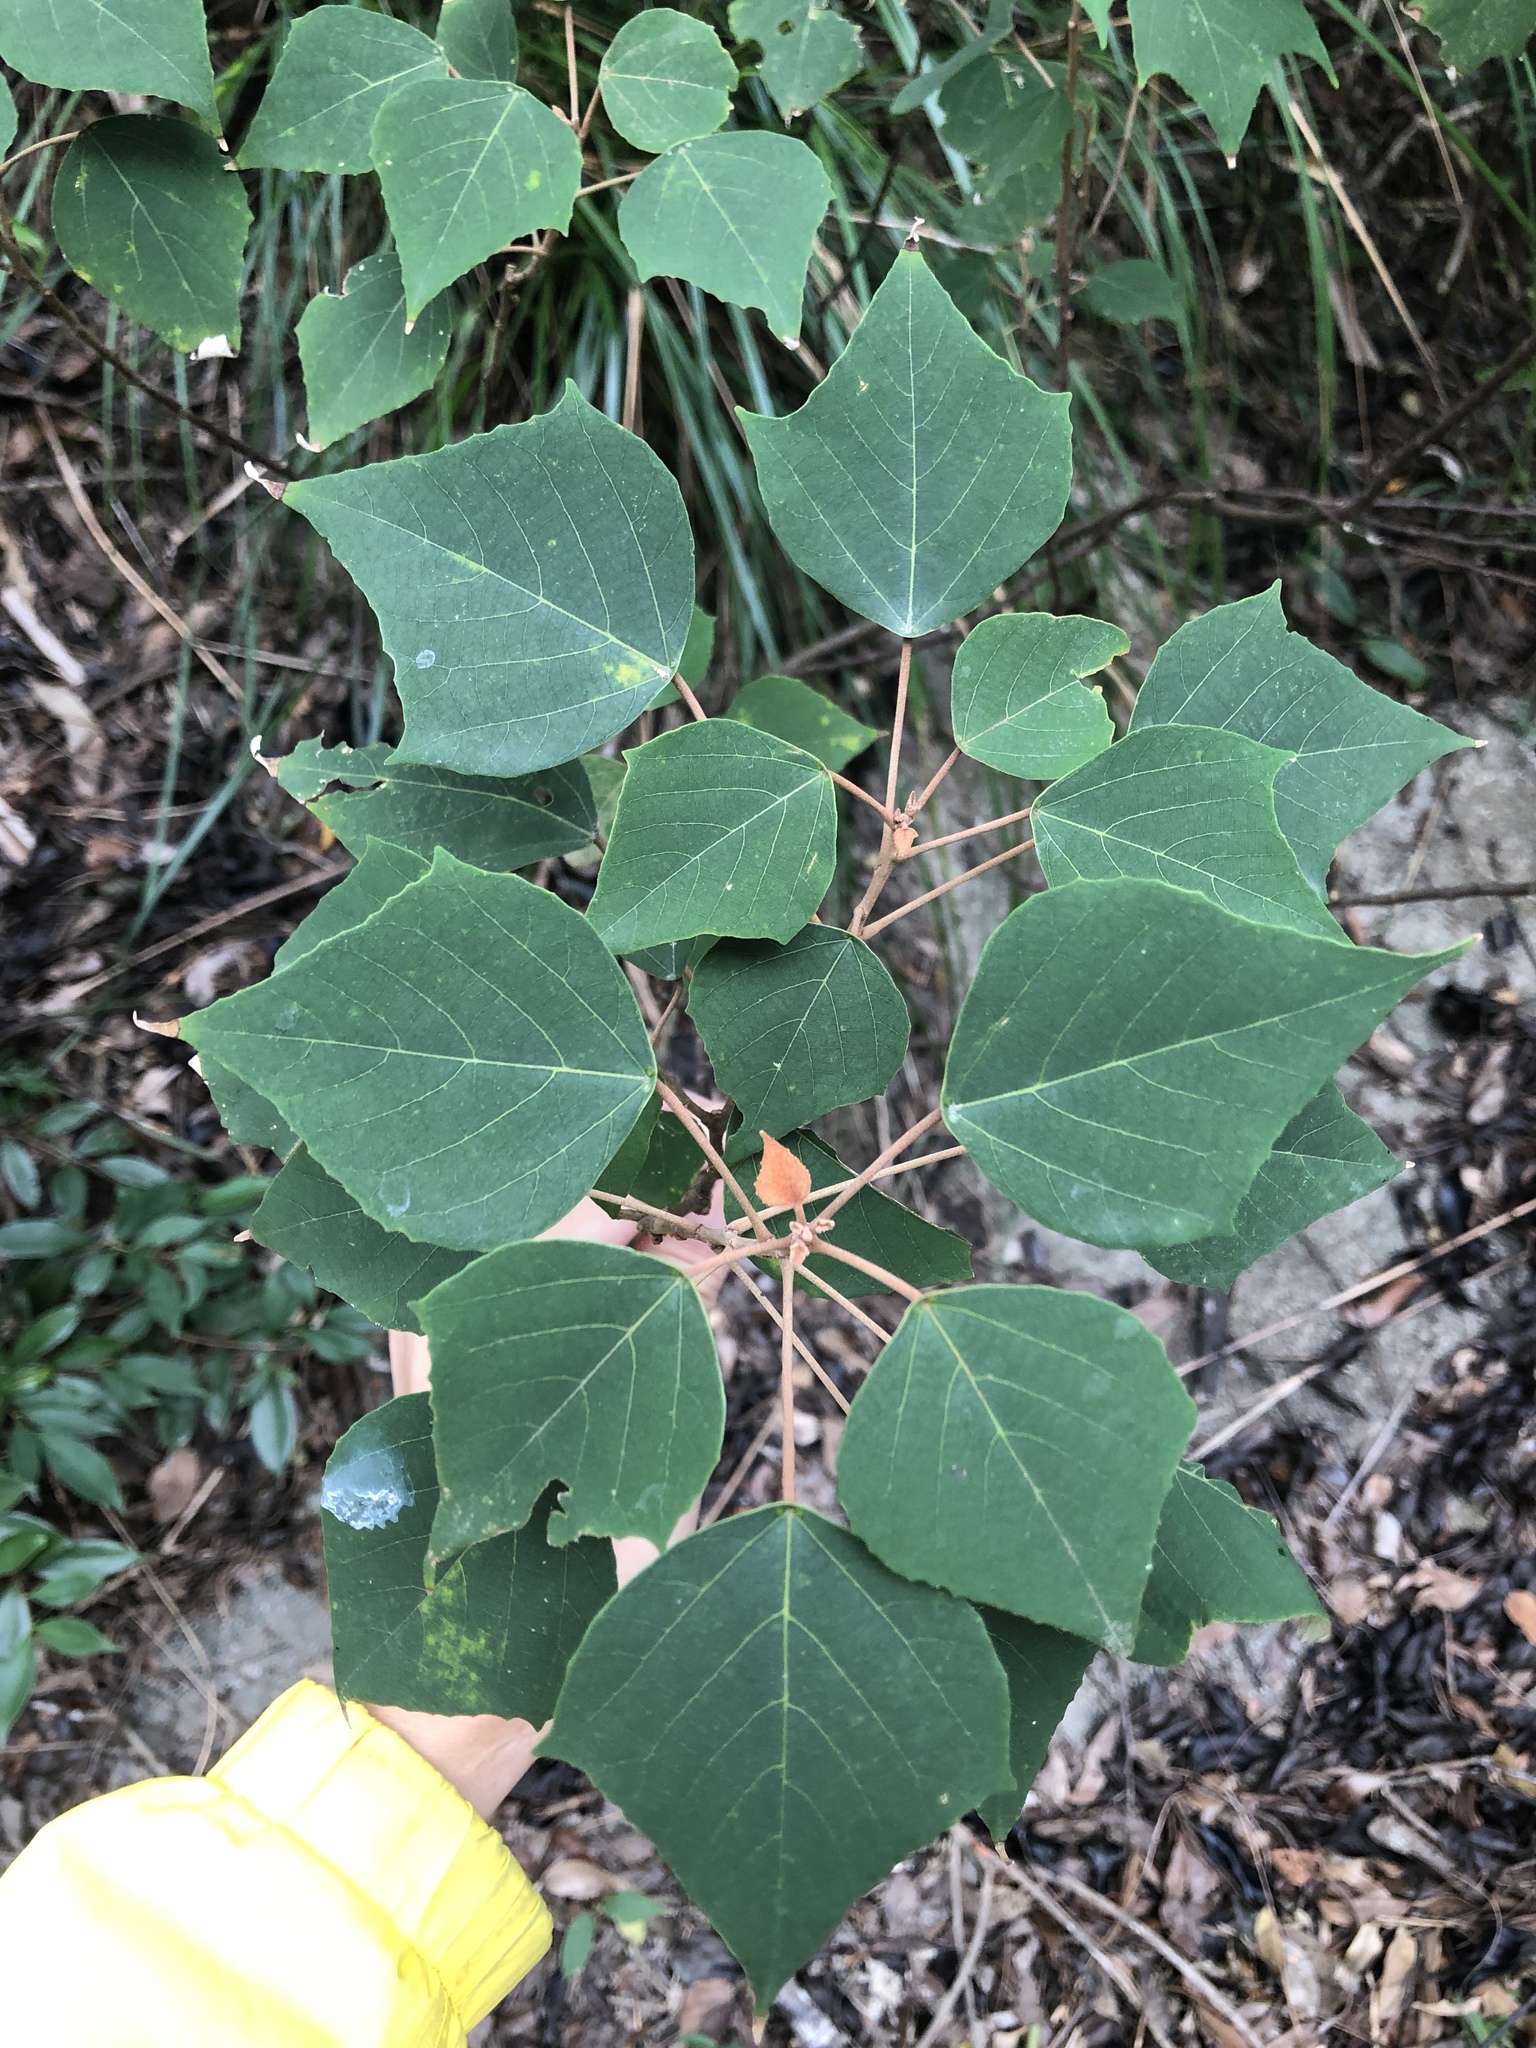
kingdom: Plantae
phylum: Tracheophyta
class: Magnoliopsida
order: Malpighiales
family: Euphorbiaceae
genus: Mallotus
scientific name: Mallotus paniculatus
